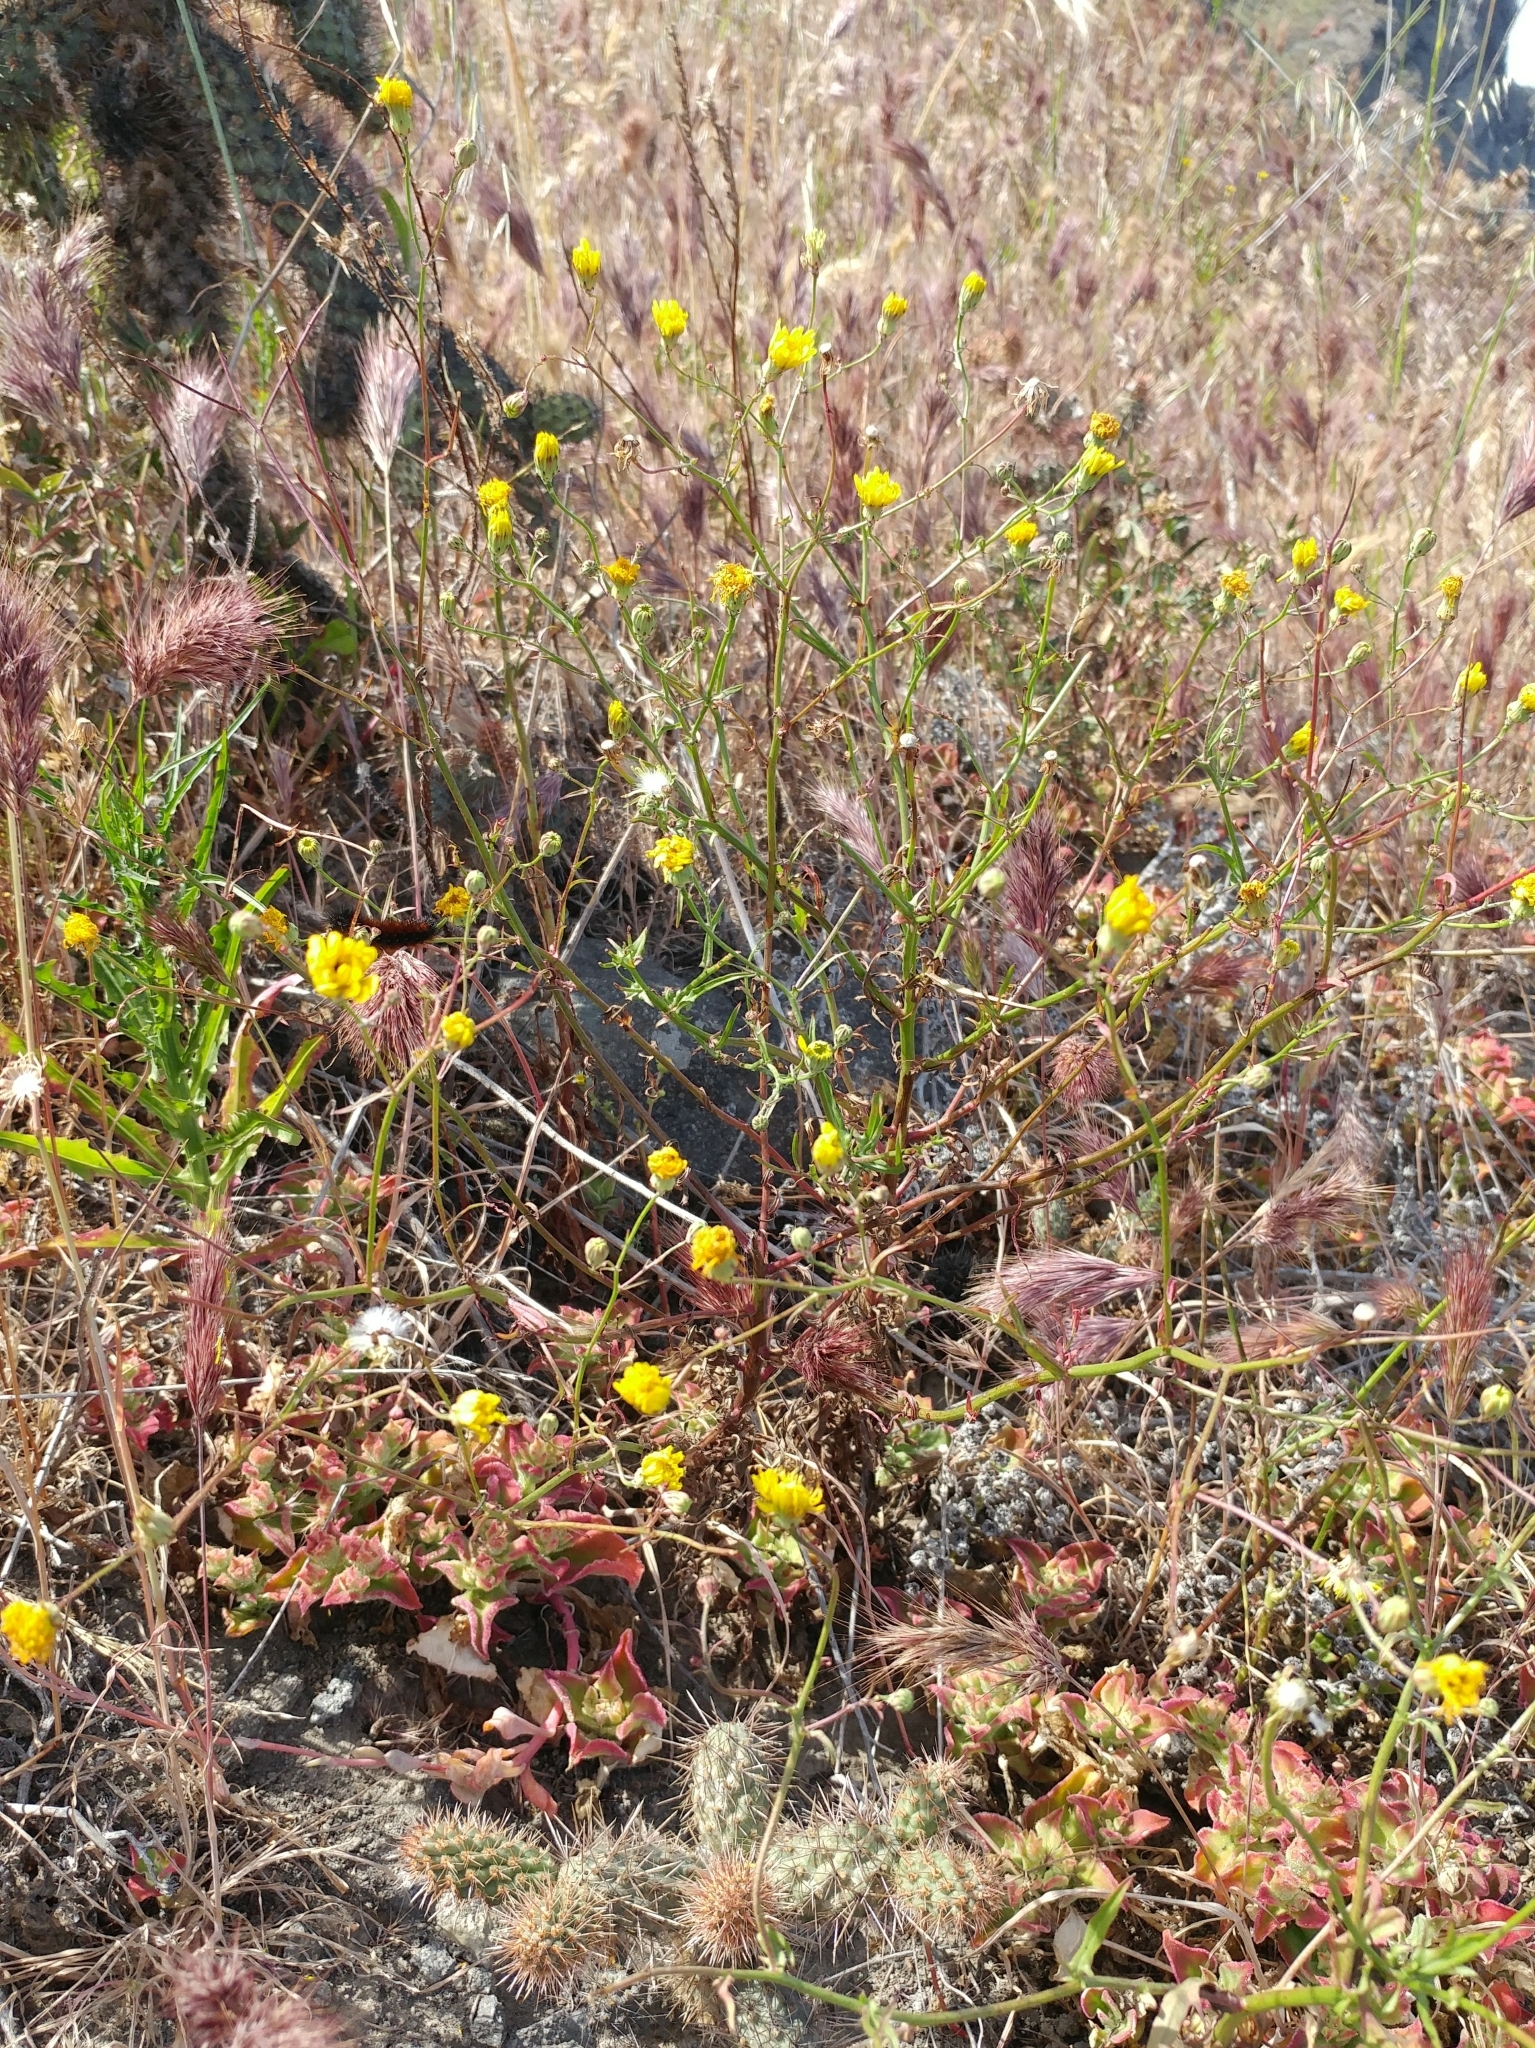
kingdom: Plantae
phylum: Tracheophyta
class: Magnoliopsida
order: Asterales
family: Asteraceae
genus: Malacothrix
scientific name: Malacothrix foliosa
